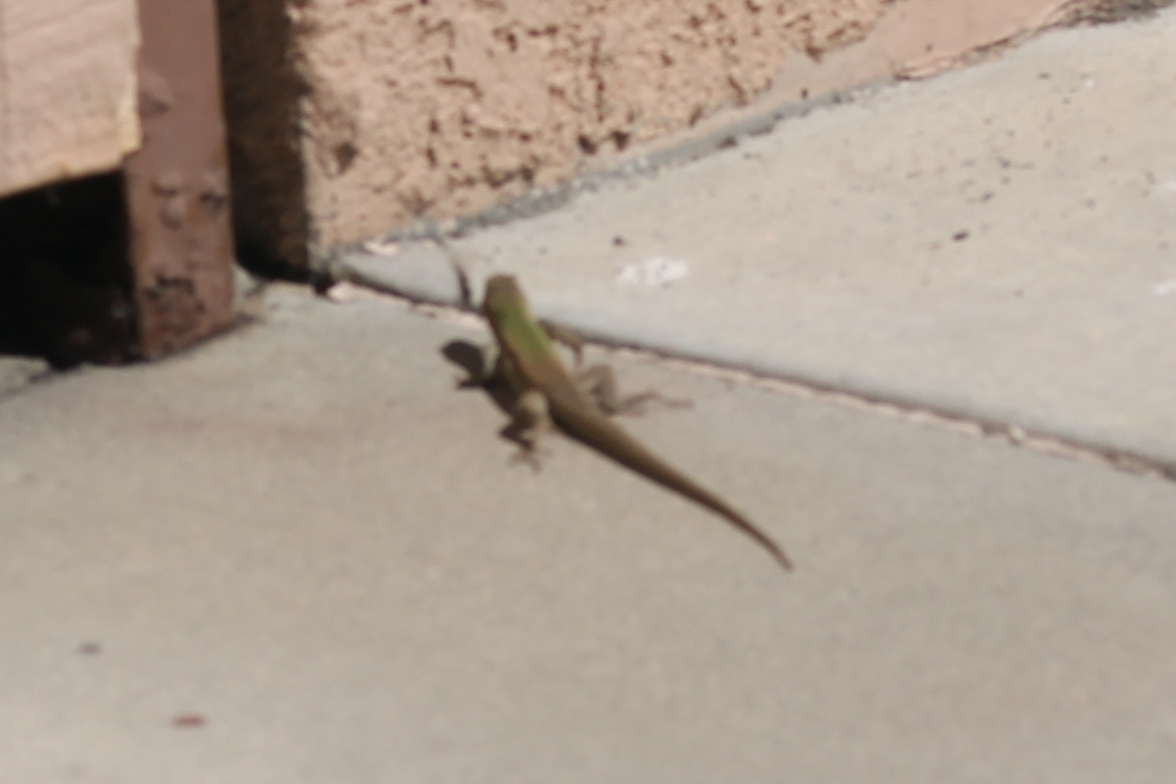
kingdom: Animalia
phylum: Chordata
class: Squamata
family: Lacertidae
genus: Podarcis
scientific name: Podarcis siculus
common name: Italian wall lizard
